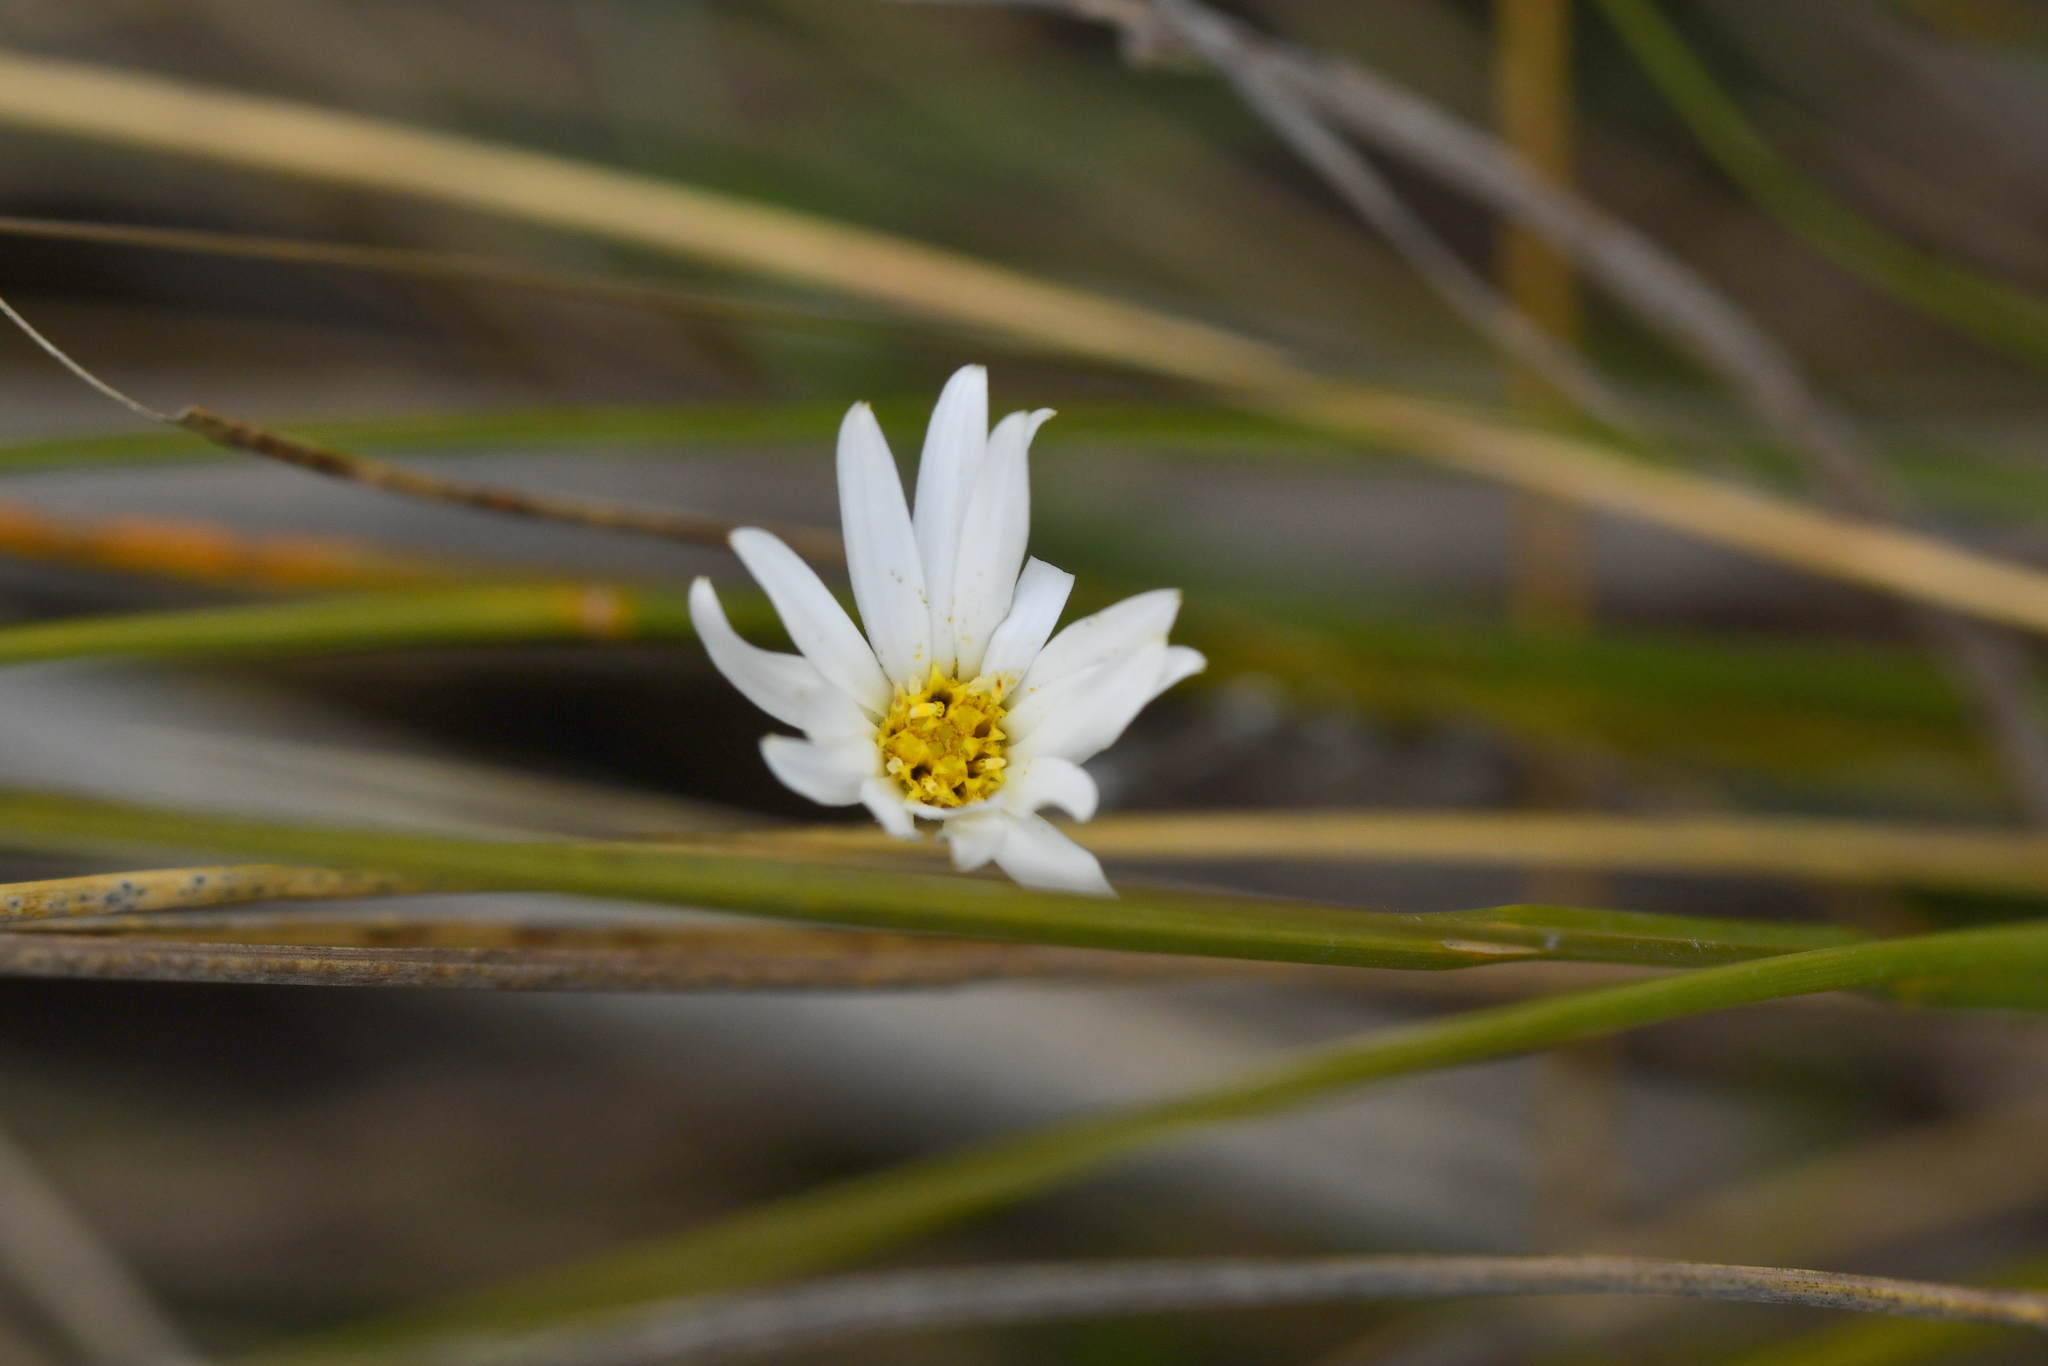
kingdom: Plantae
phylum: Tracheophyta
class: Magnoliopsida
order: Asterales
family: Asteraceae
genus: Celmisia
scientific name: Celmisia gracilenta
